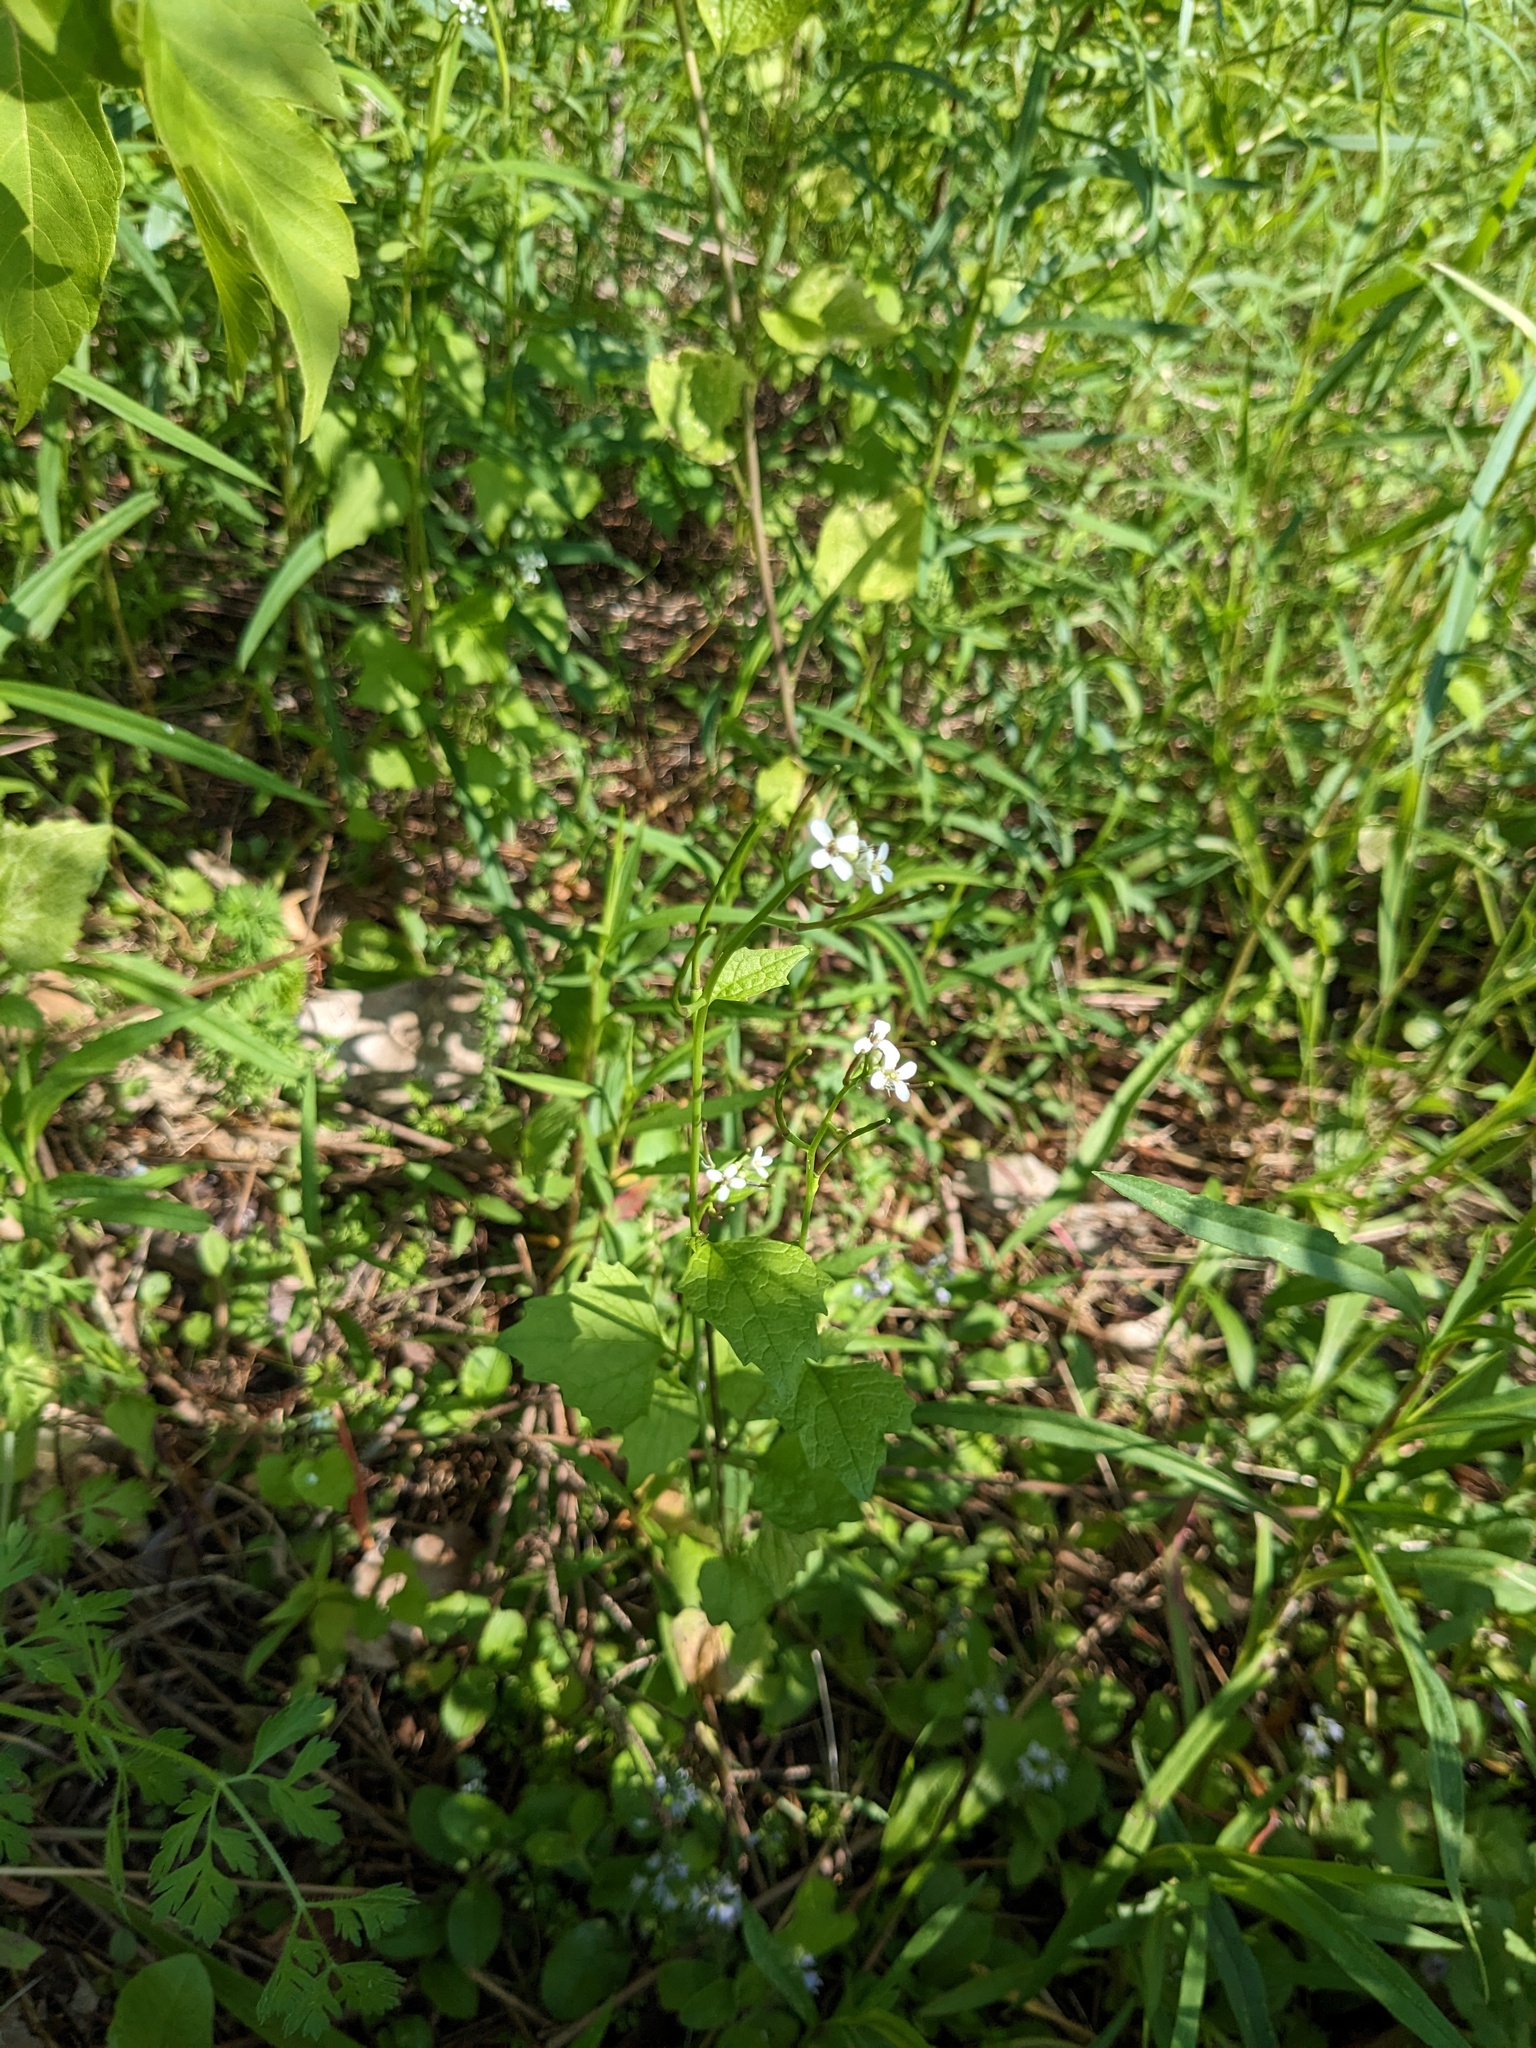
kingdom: Plantae
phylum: Tracheophyta
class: Magnoliopsida
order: Brassicales
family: Brassicaceae
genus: Alliaria
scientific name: Alliaria petiolata
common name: Garlic mustard
